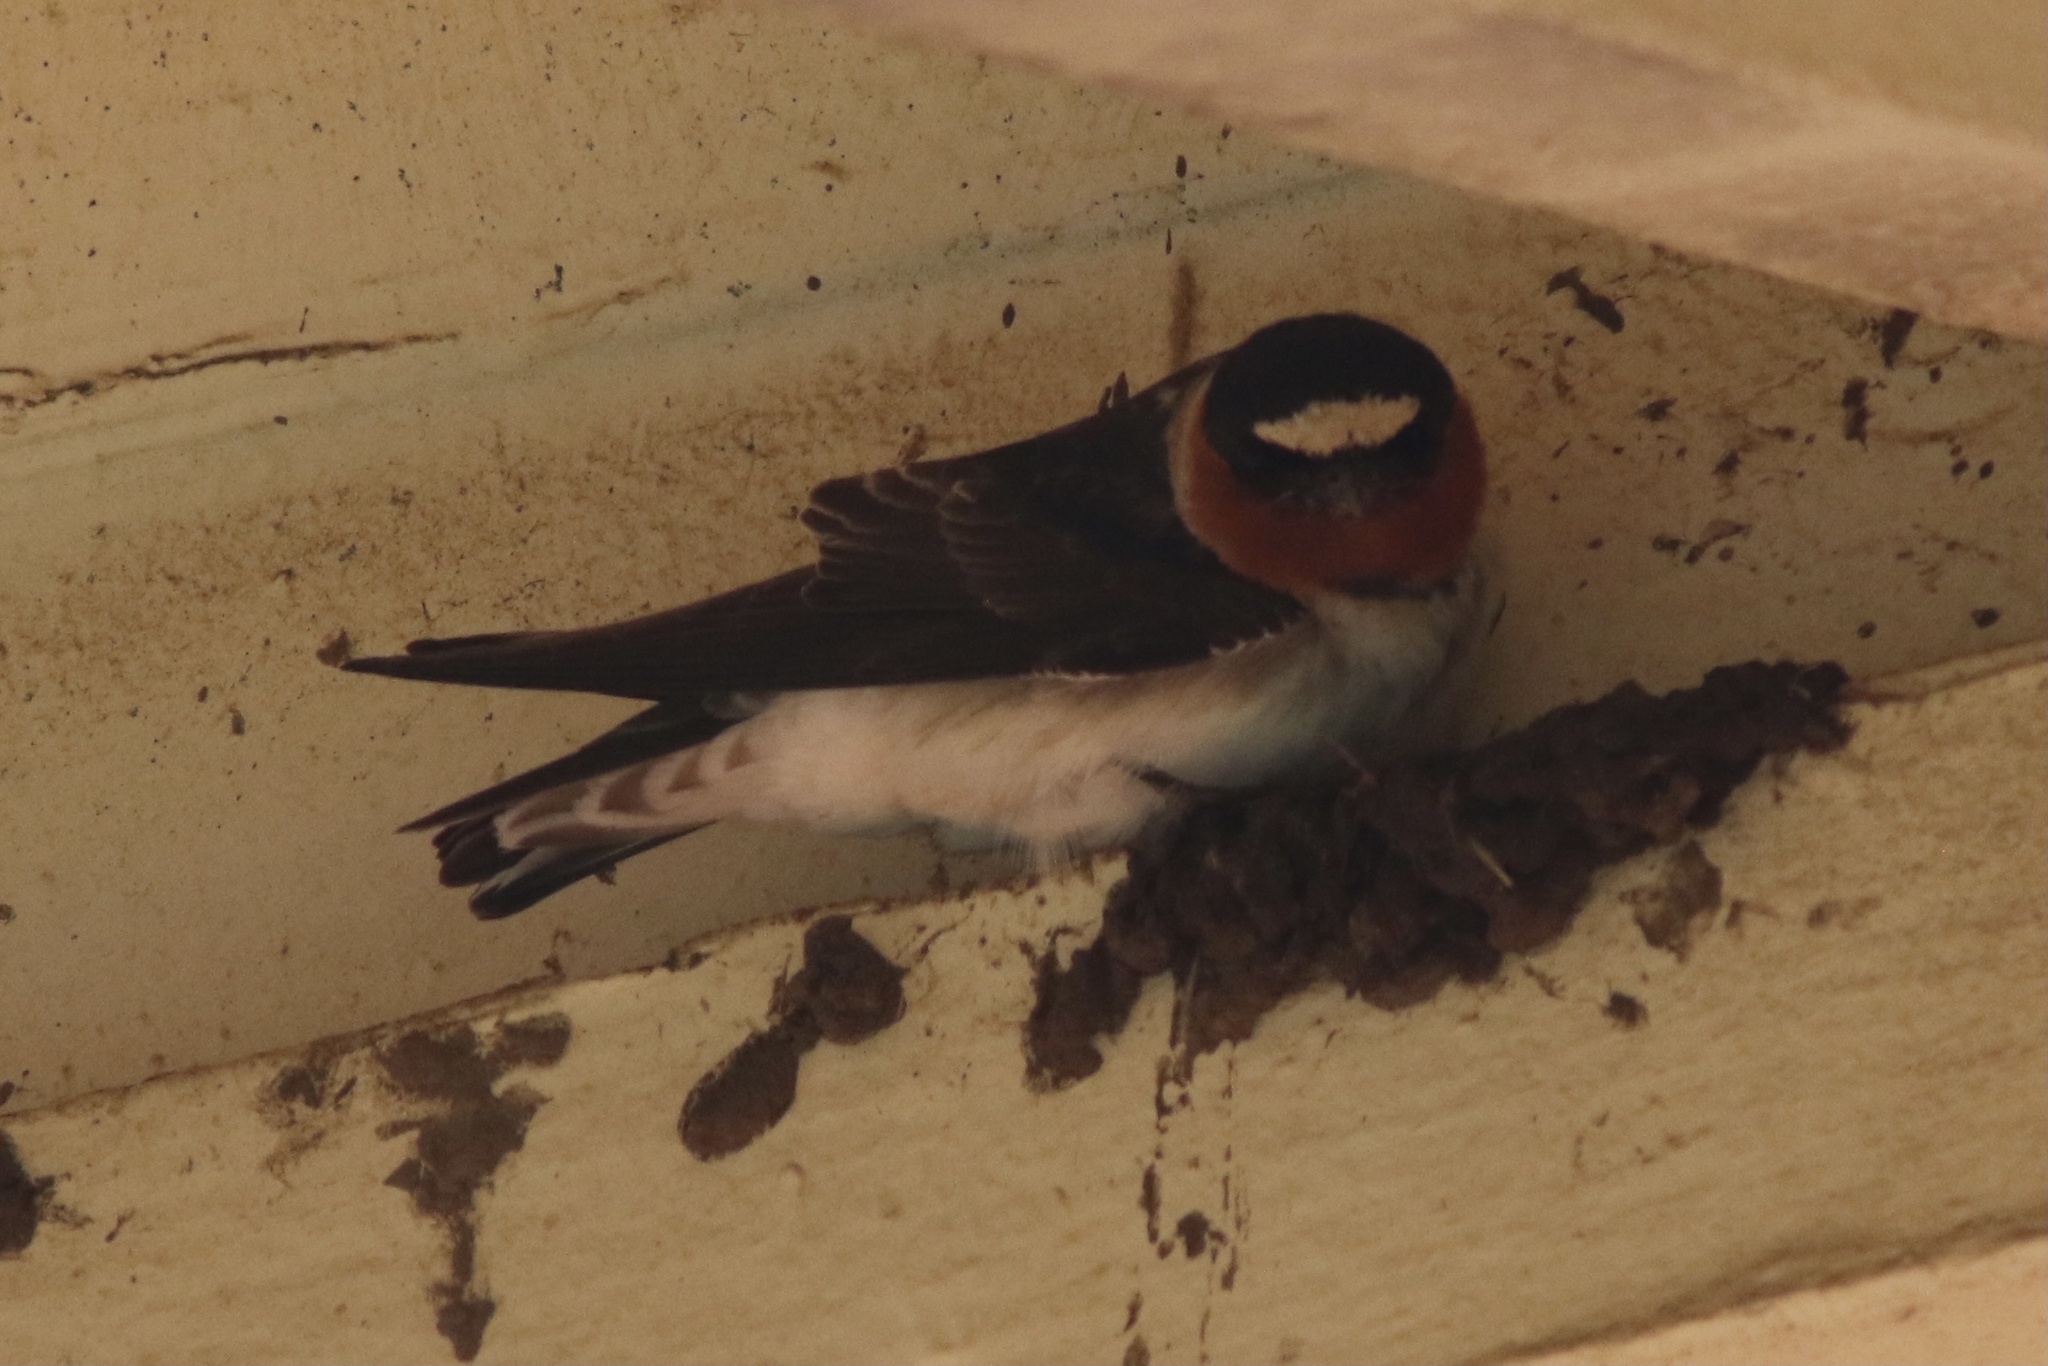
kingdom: Animalia
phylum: Chordata
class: Aves
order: Passeriformes
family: Hirundinidae
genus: Petrochelidon
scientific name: Petrochelidon pyrrhonota
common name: American cliff swallow
